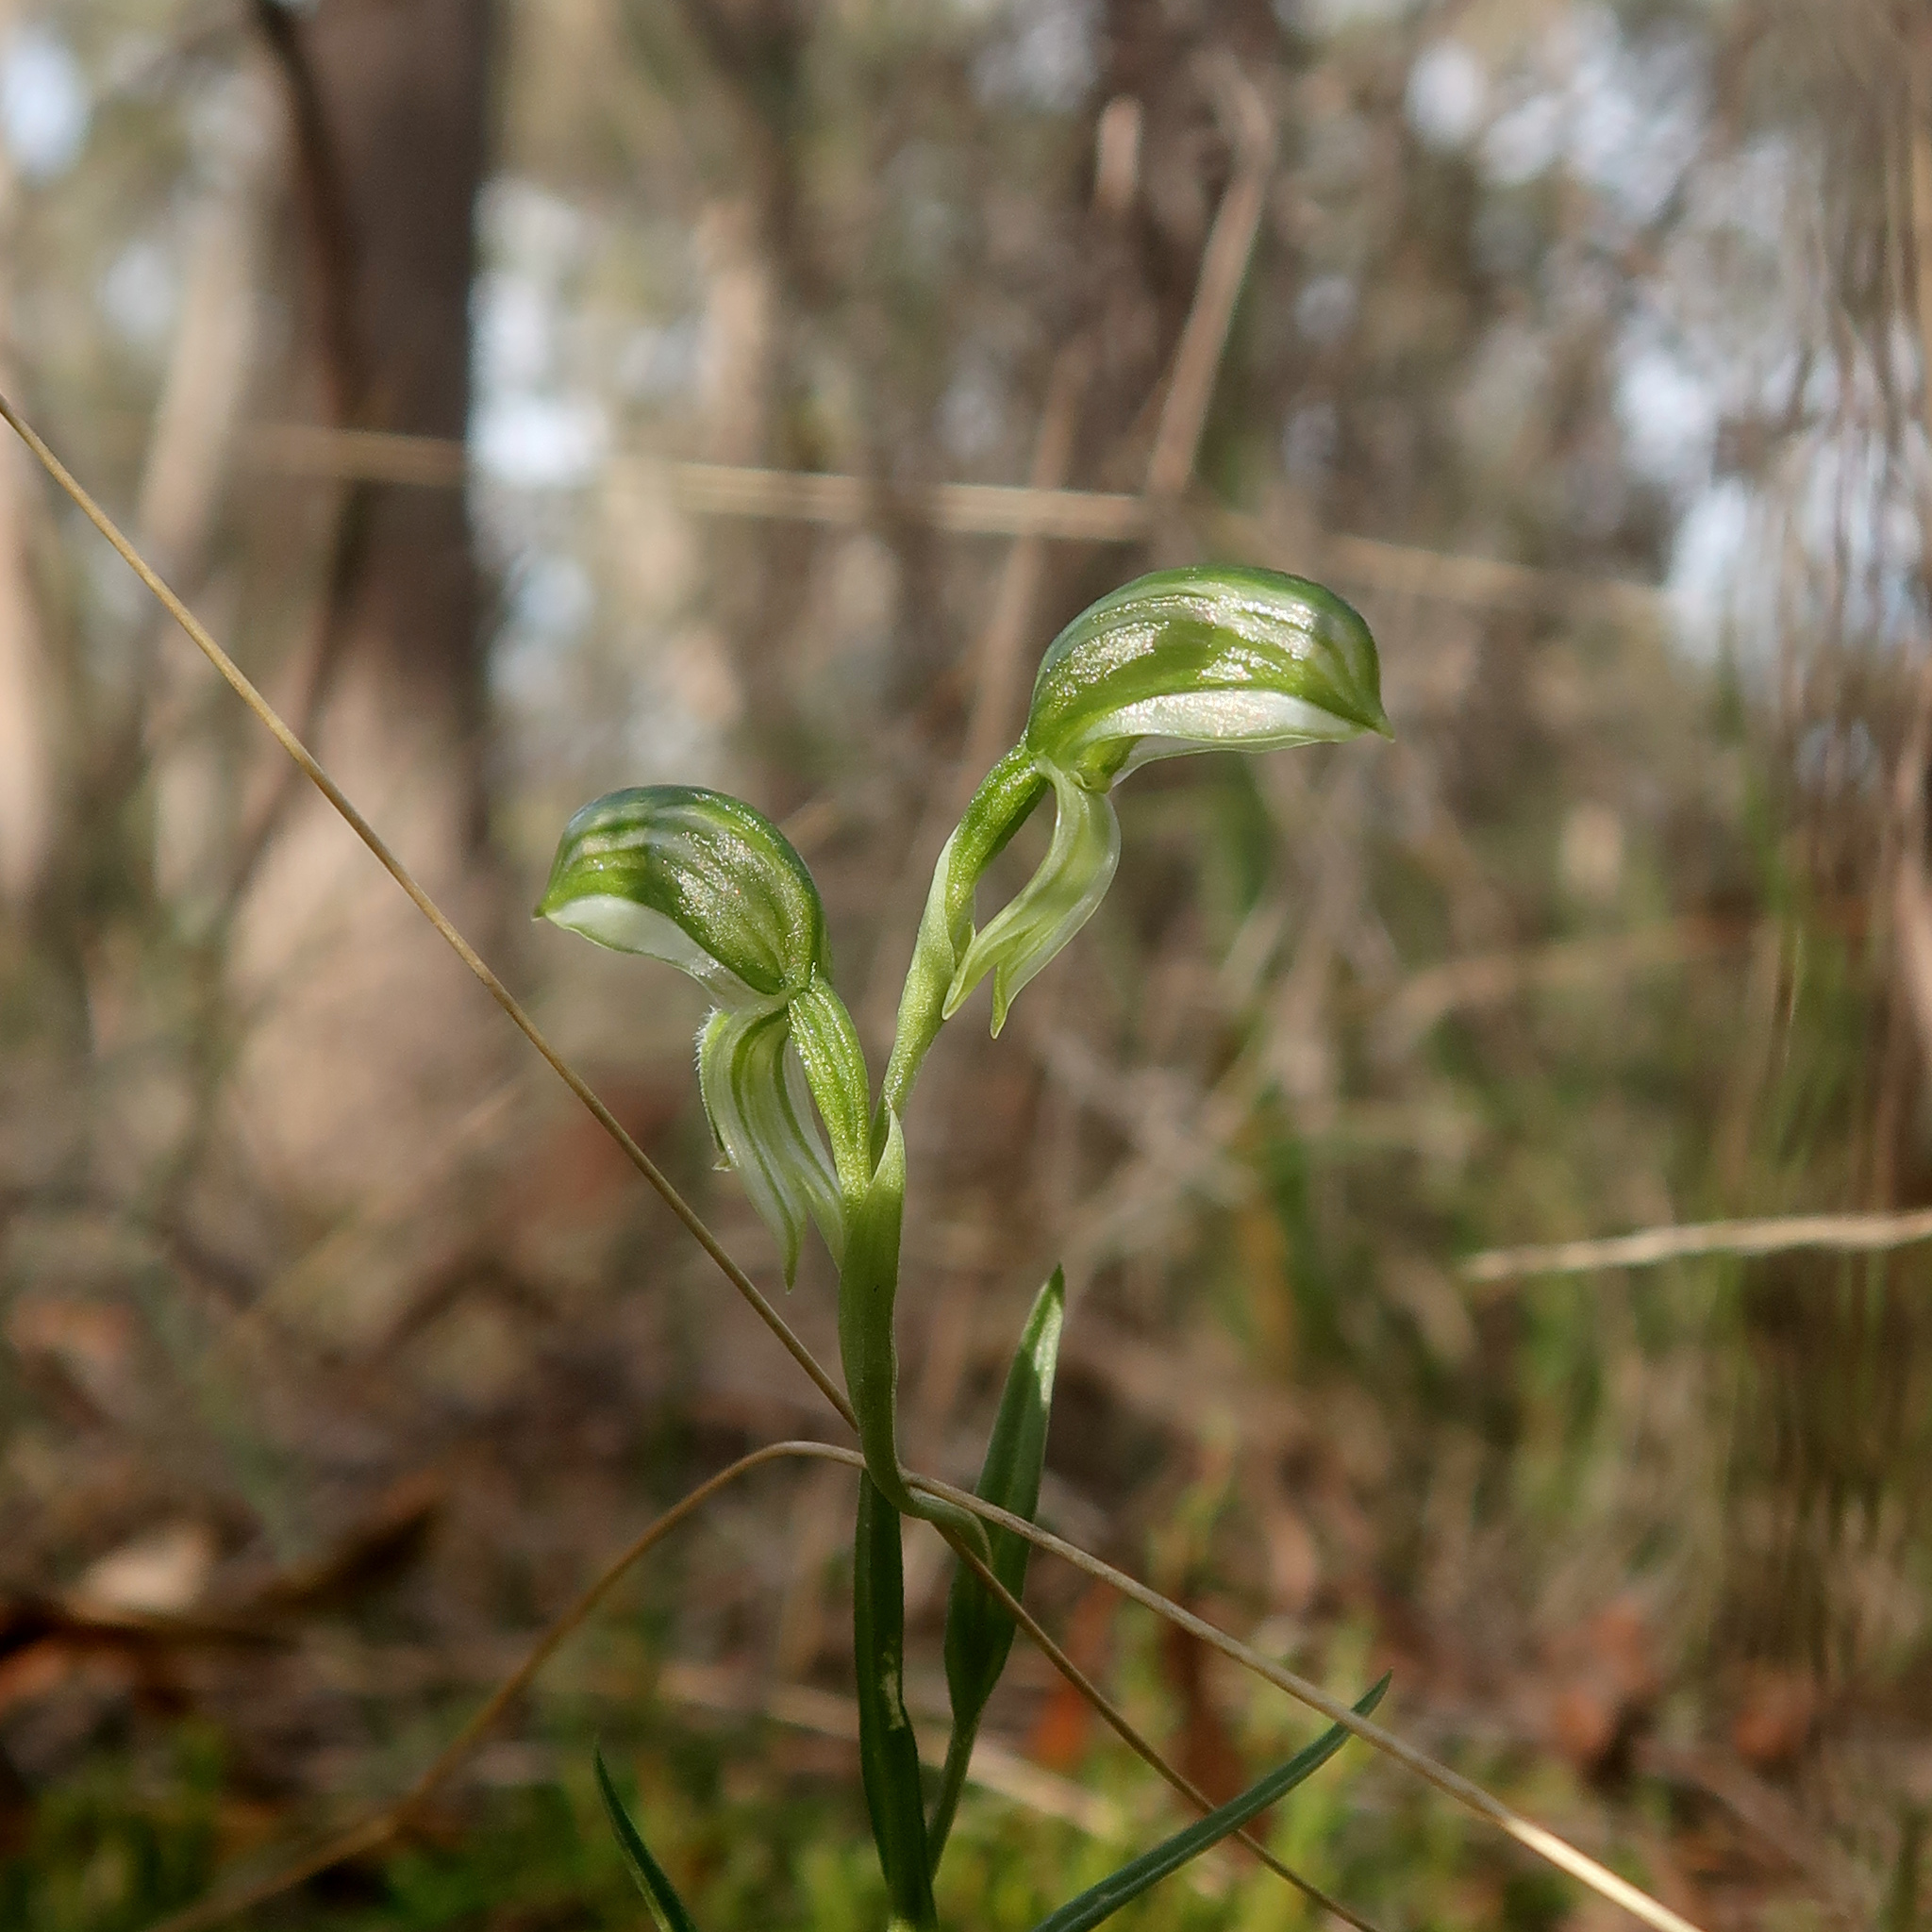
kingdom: Plantae
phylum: Tracheophyta
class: Liliopsida
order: Asparagales
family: Orchidaceae
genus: Pterostylis
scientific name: Pterostylis stenochila
